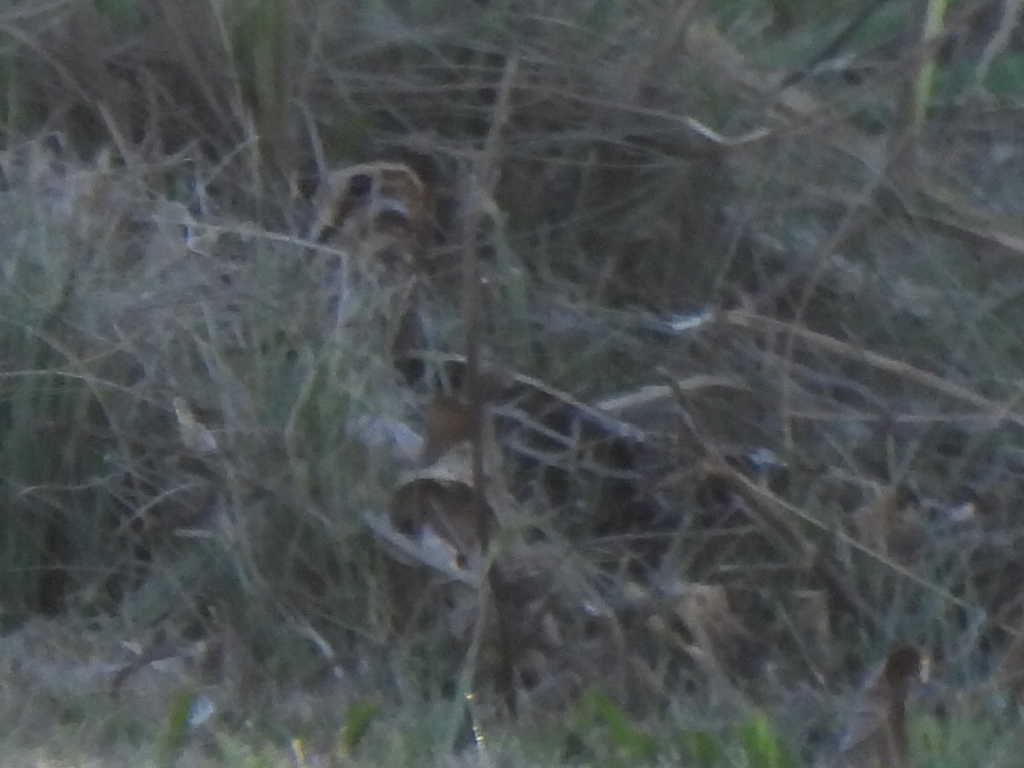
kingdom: Animalia
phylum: Chordata
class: Aves
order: Charadriiformes
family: Scolopacidae
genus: Gallinago
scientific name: Gallinago delicata
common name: Wilson's snipe
